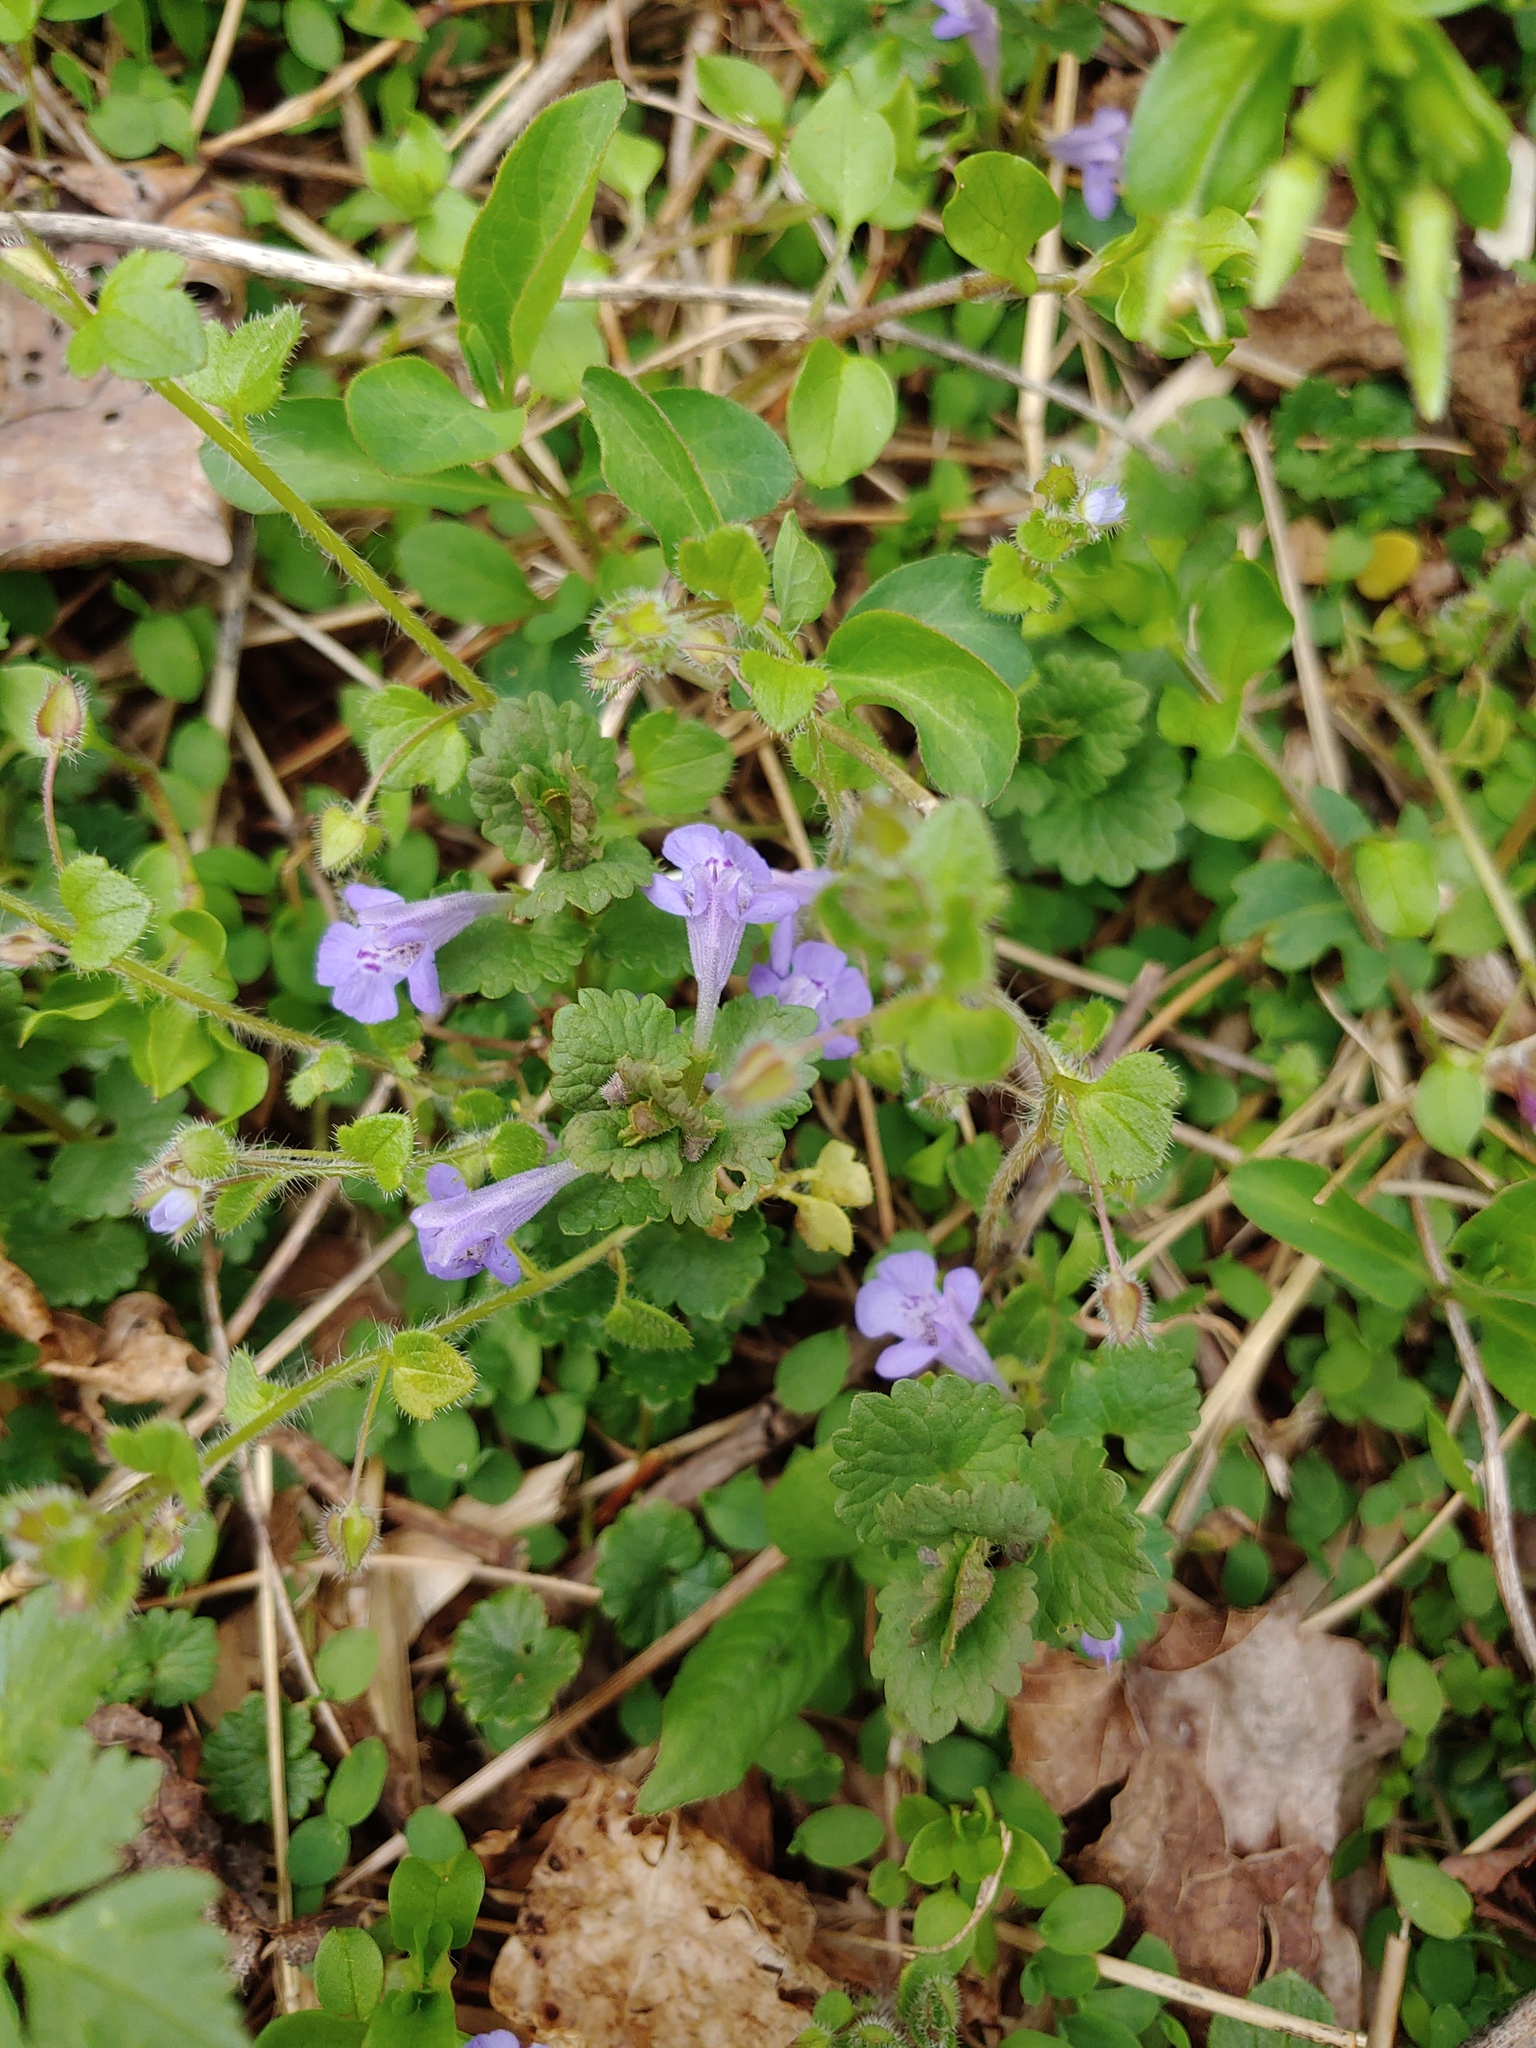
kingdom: Plantae
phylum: Tracheophyta
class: Magnoliopsida
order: Lamiales
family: Lamiaceae
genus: Glechoma
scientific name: Glechoma hederacea
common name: Ground ivy
